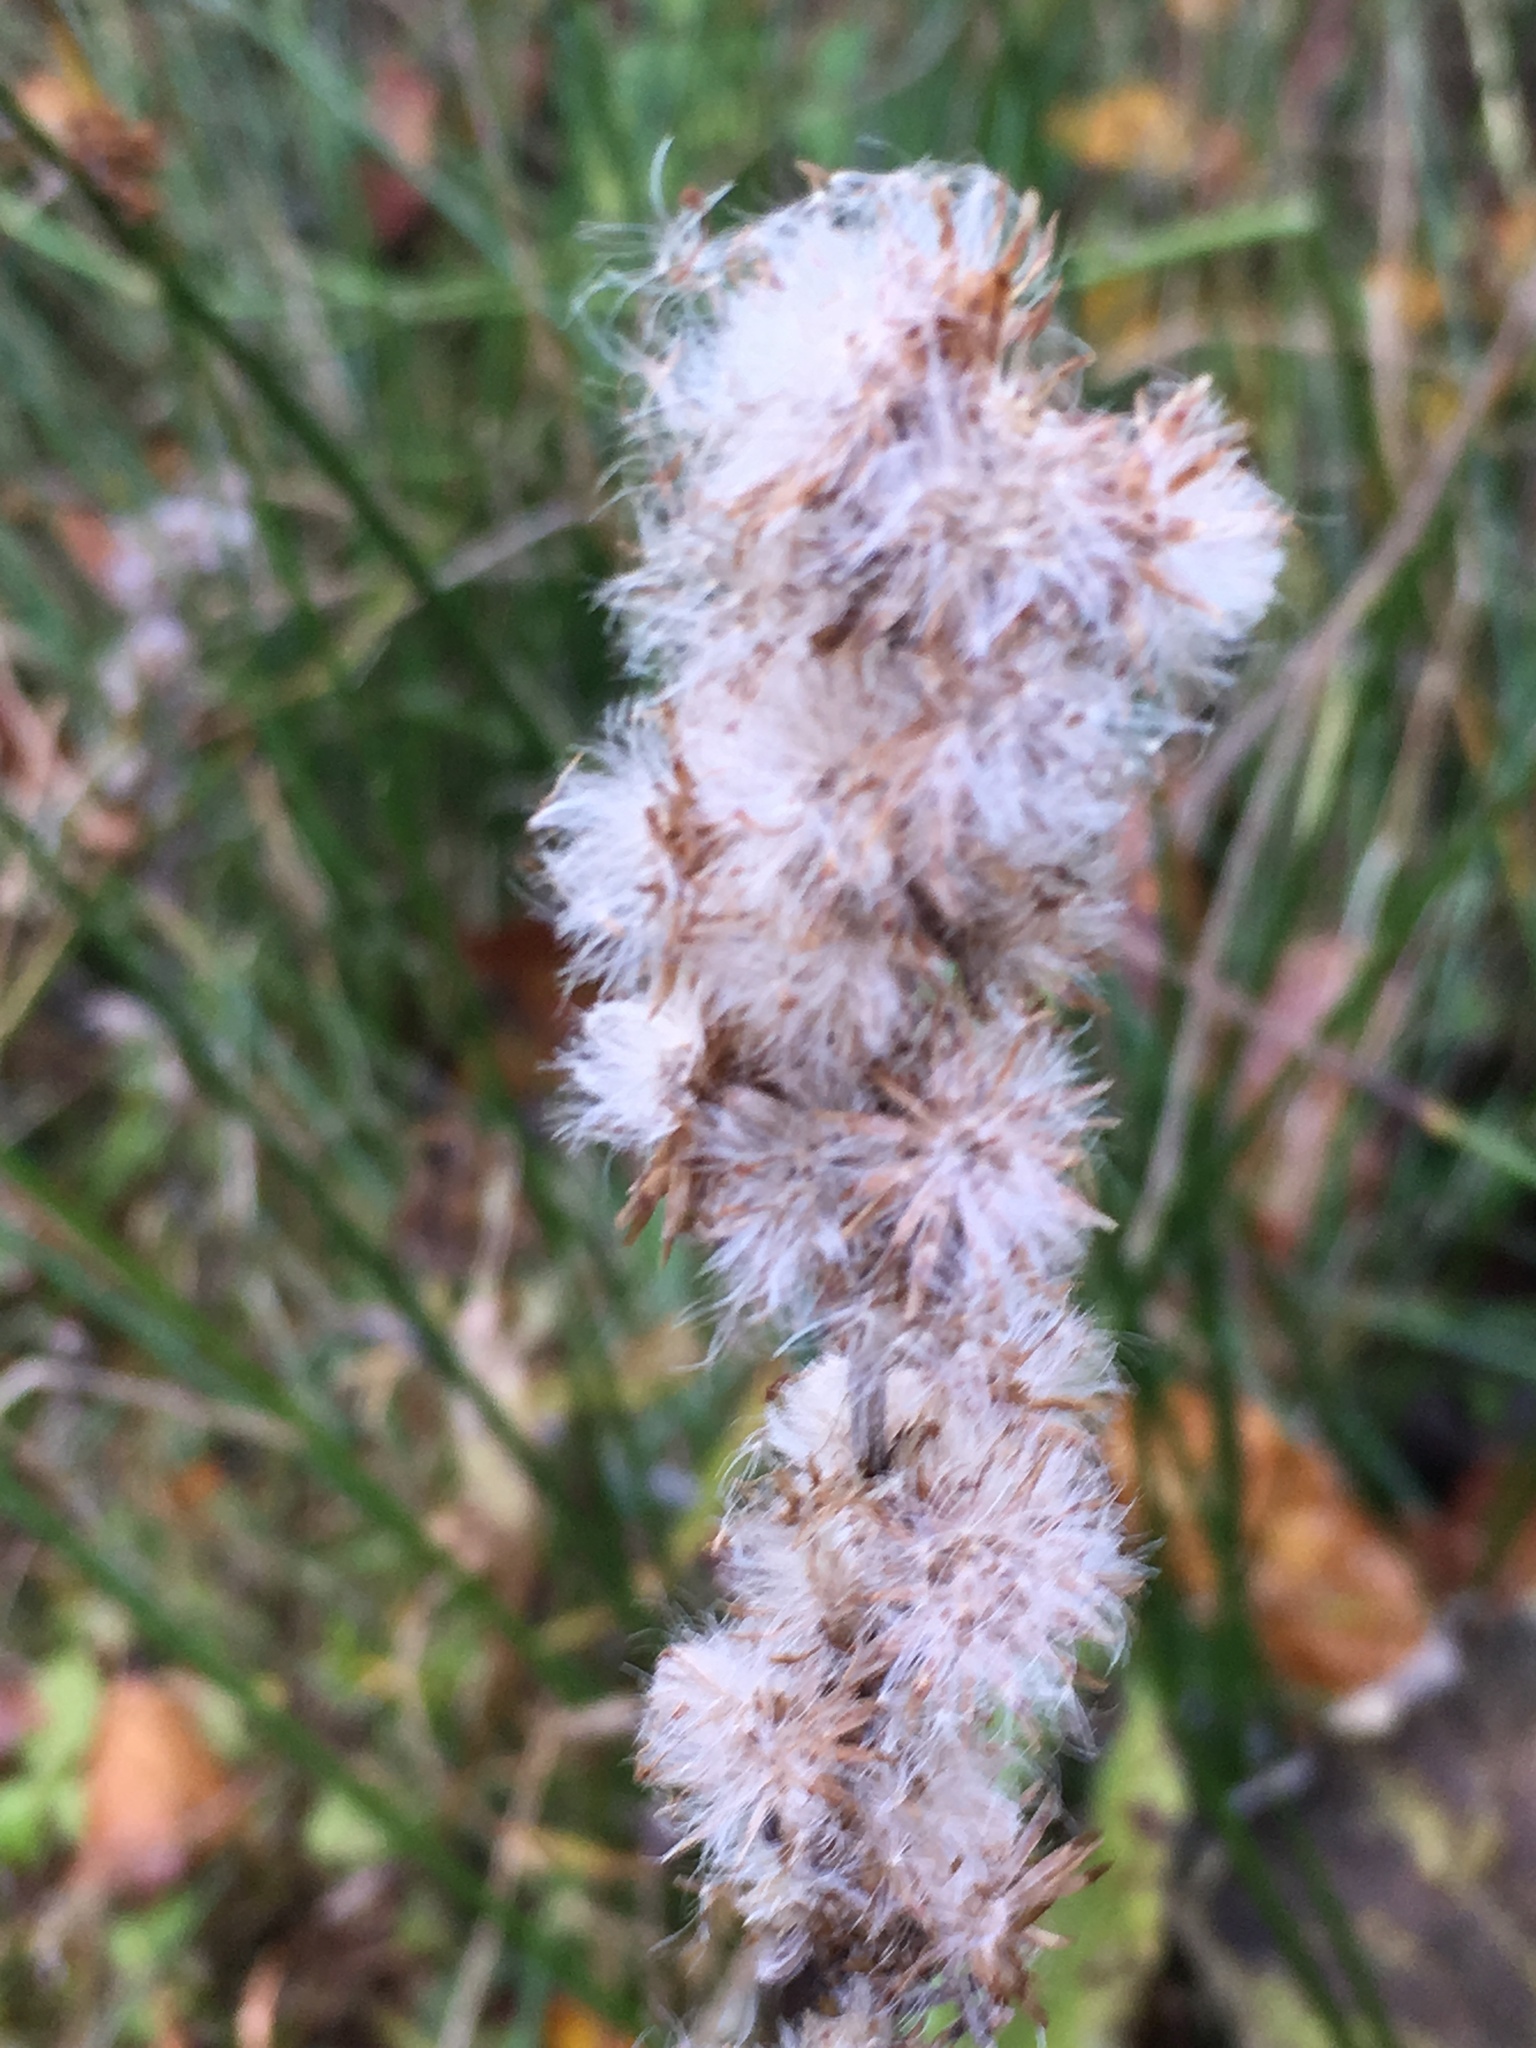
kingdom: Plantae
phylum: Tracheophyta
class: Magnoliopsida
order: Asterales
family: Asteraceae
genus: Omalotheca
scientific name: Omalotheca sylvatica
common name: Heath cudweed
